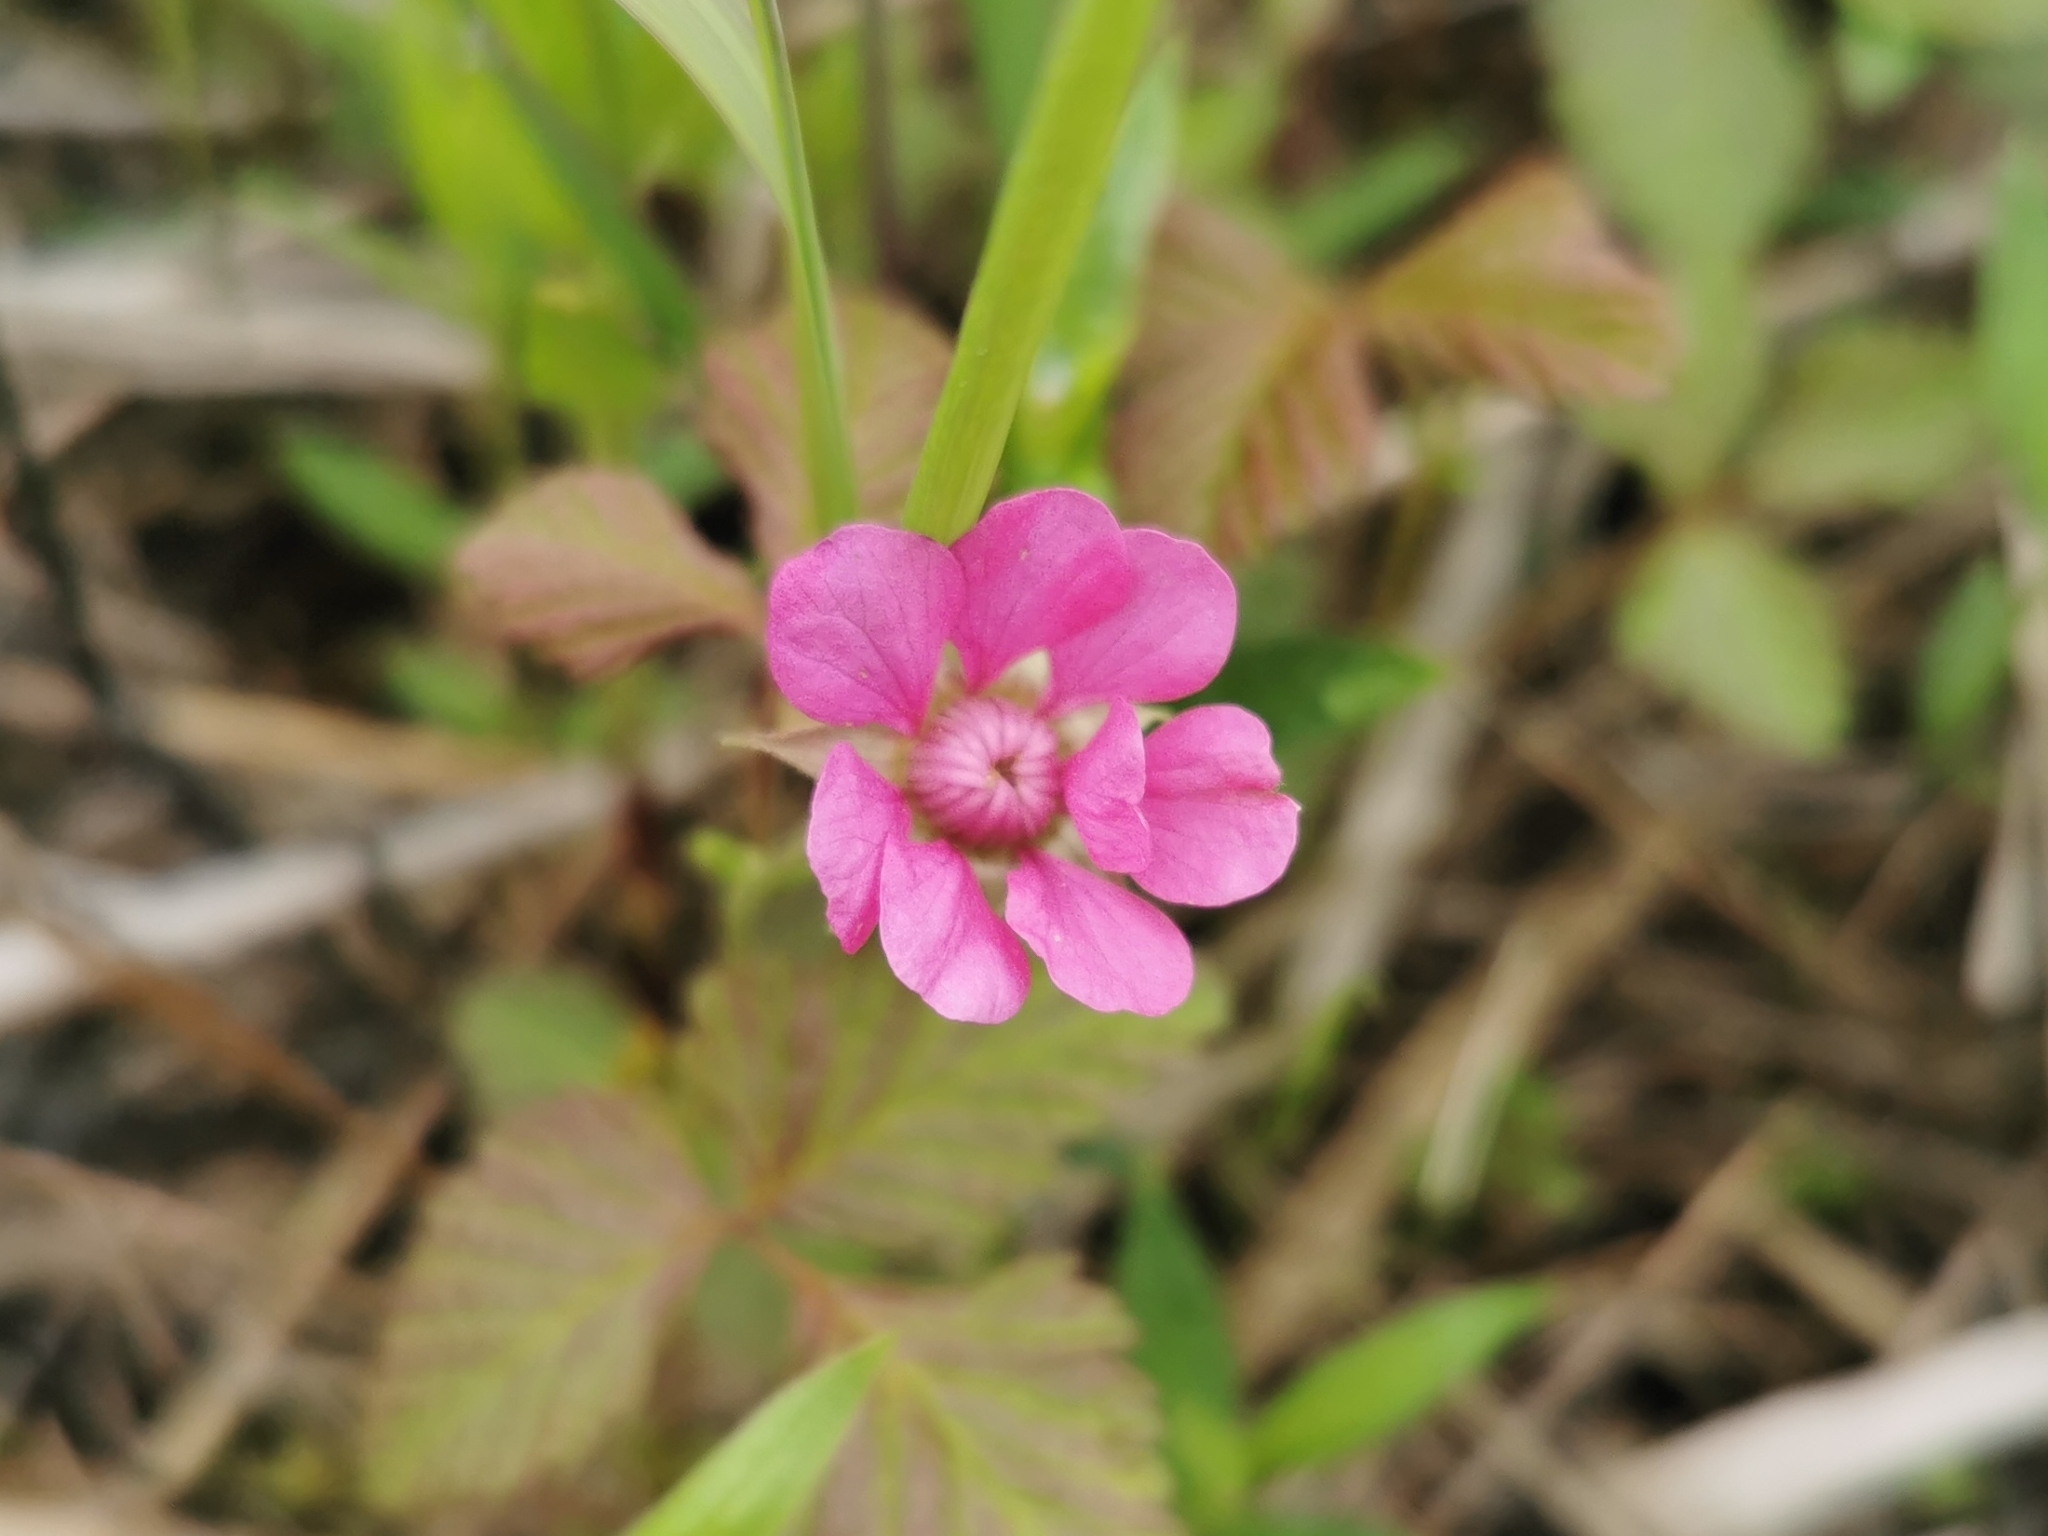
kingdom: Plantae
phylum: Tracheophyta
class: Magnoliopsida
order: Rosales
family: Rosaceae
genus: Rubus
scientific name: Rubus arcticus
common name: Arctic bramble
